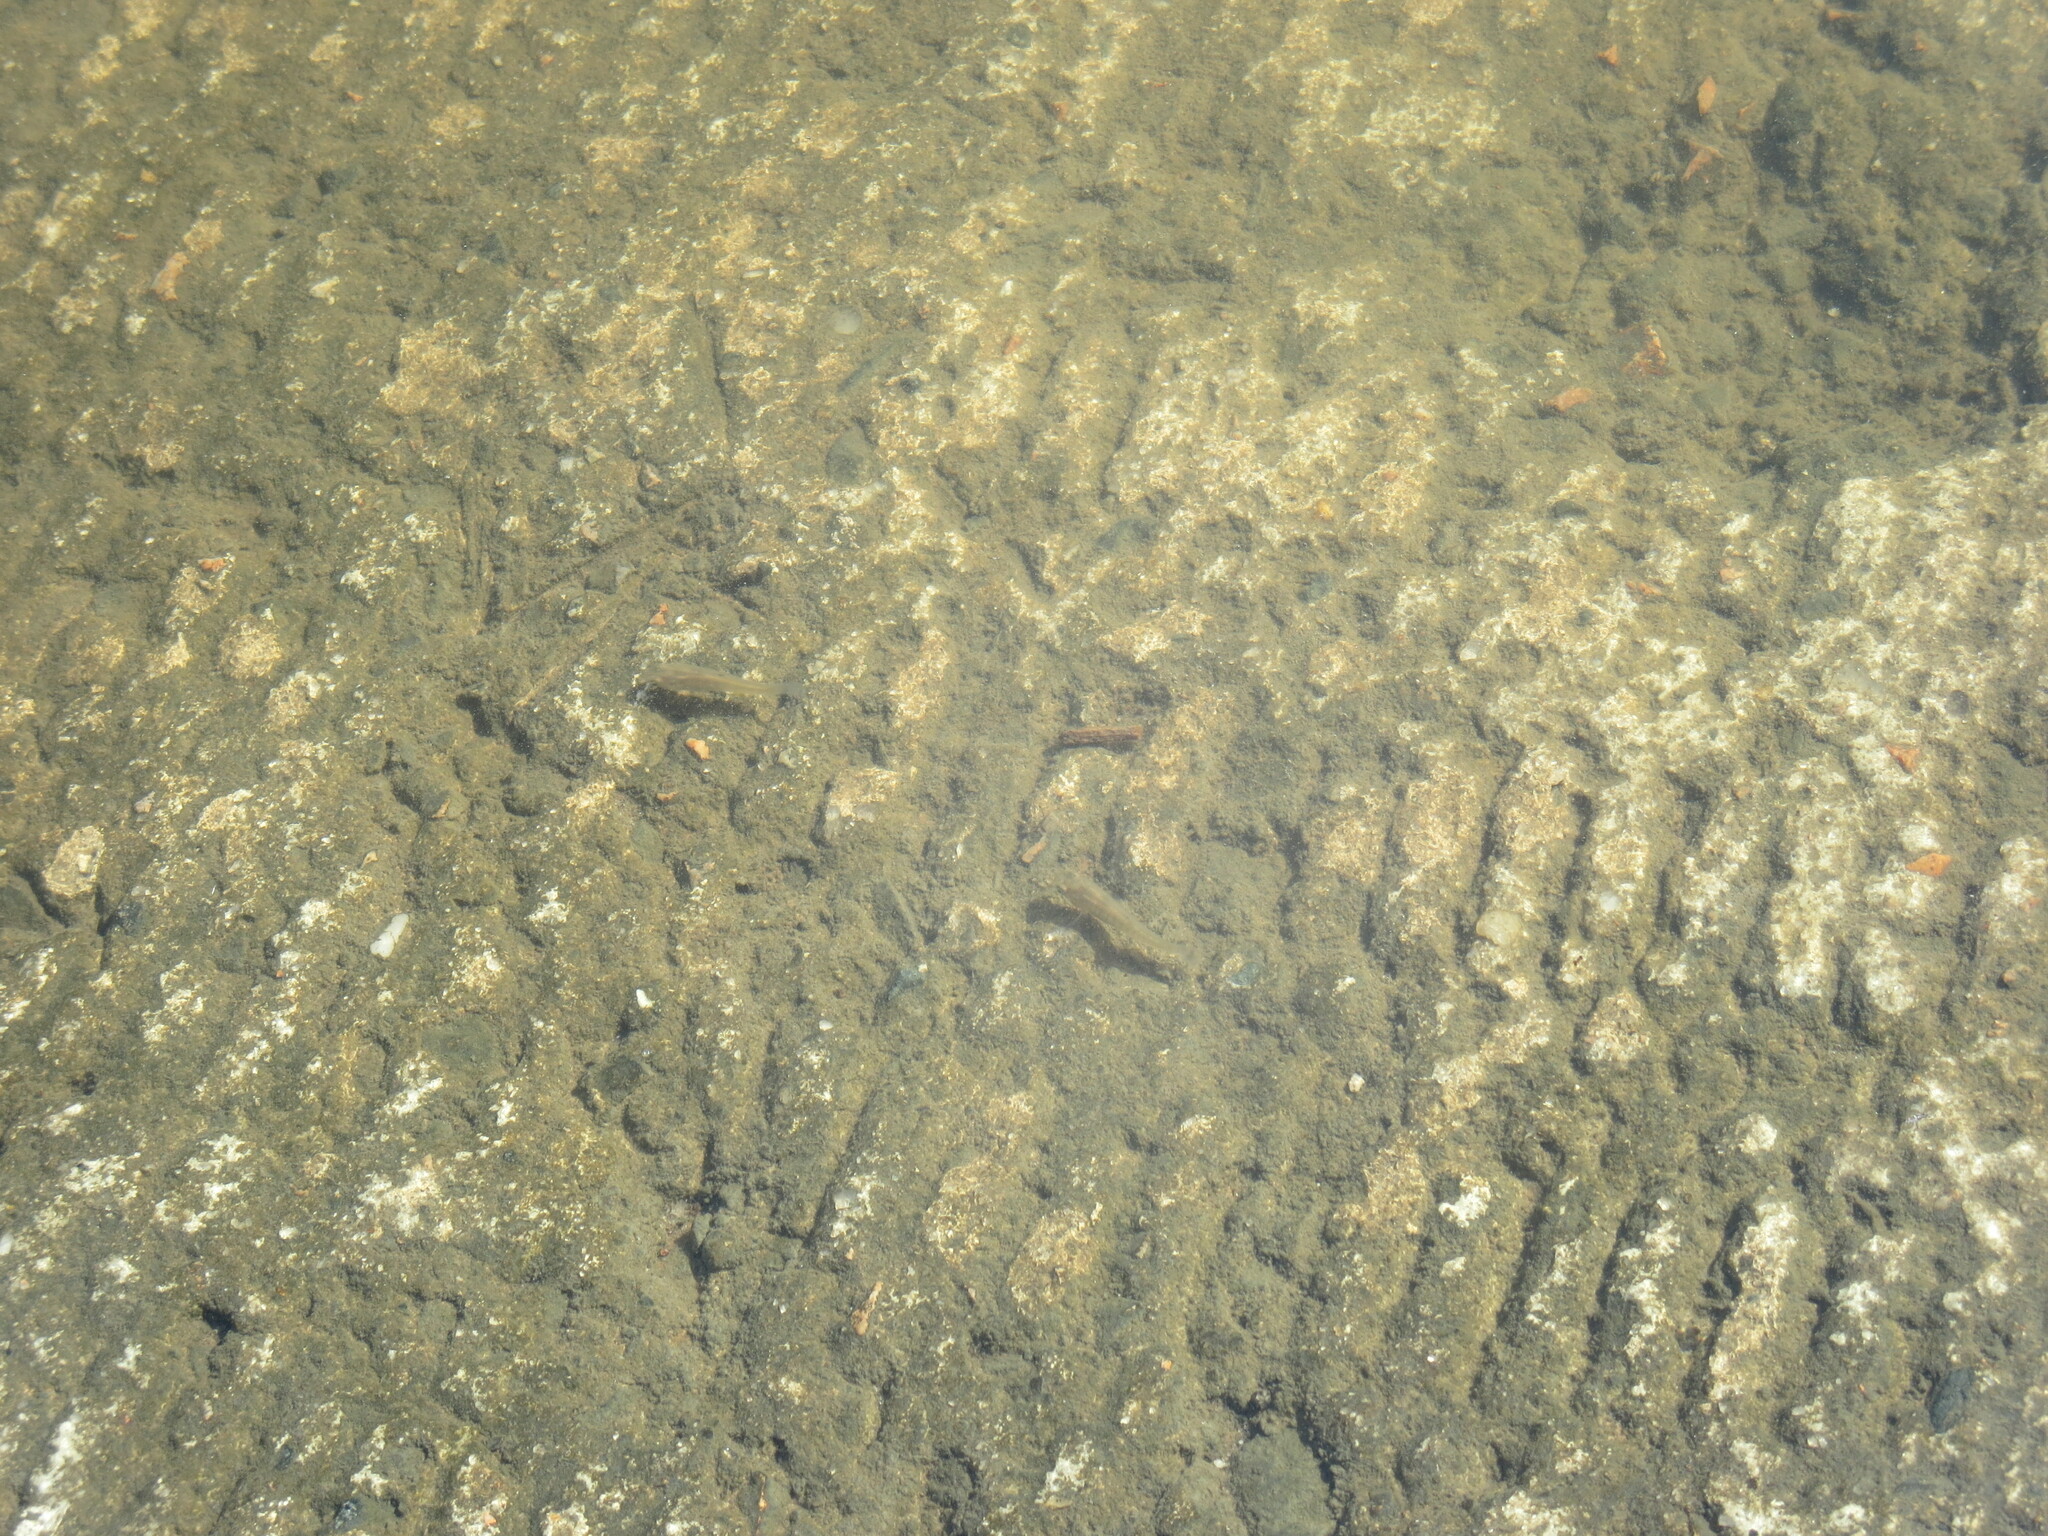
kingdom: Animalia
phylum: Chordata
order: Cyprinodontiformes
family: Poeciliidae
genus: Gambusia
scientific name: Gambusia holbrooki
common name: Eastern mosquitofish
